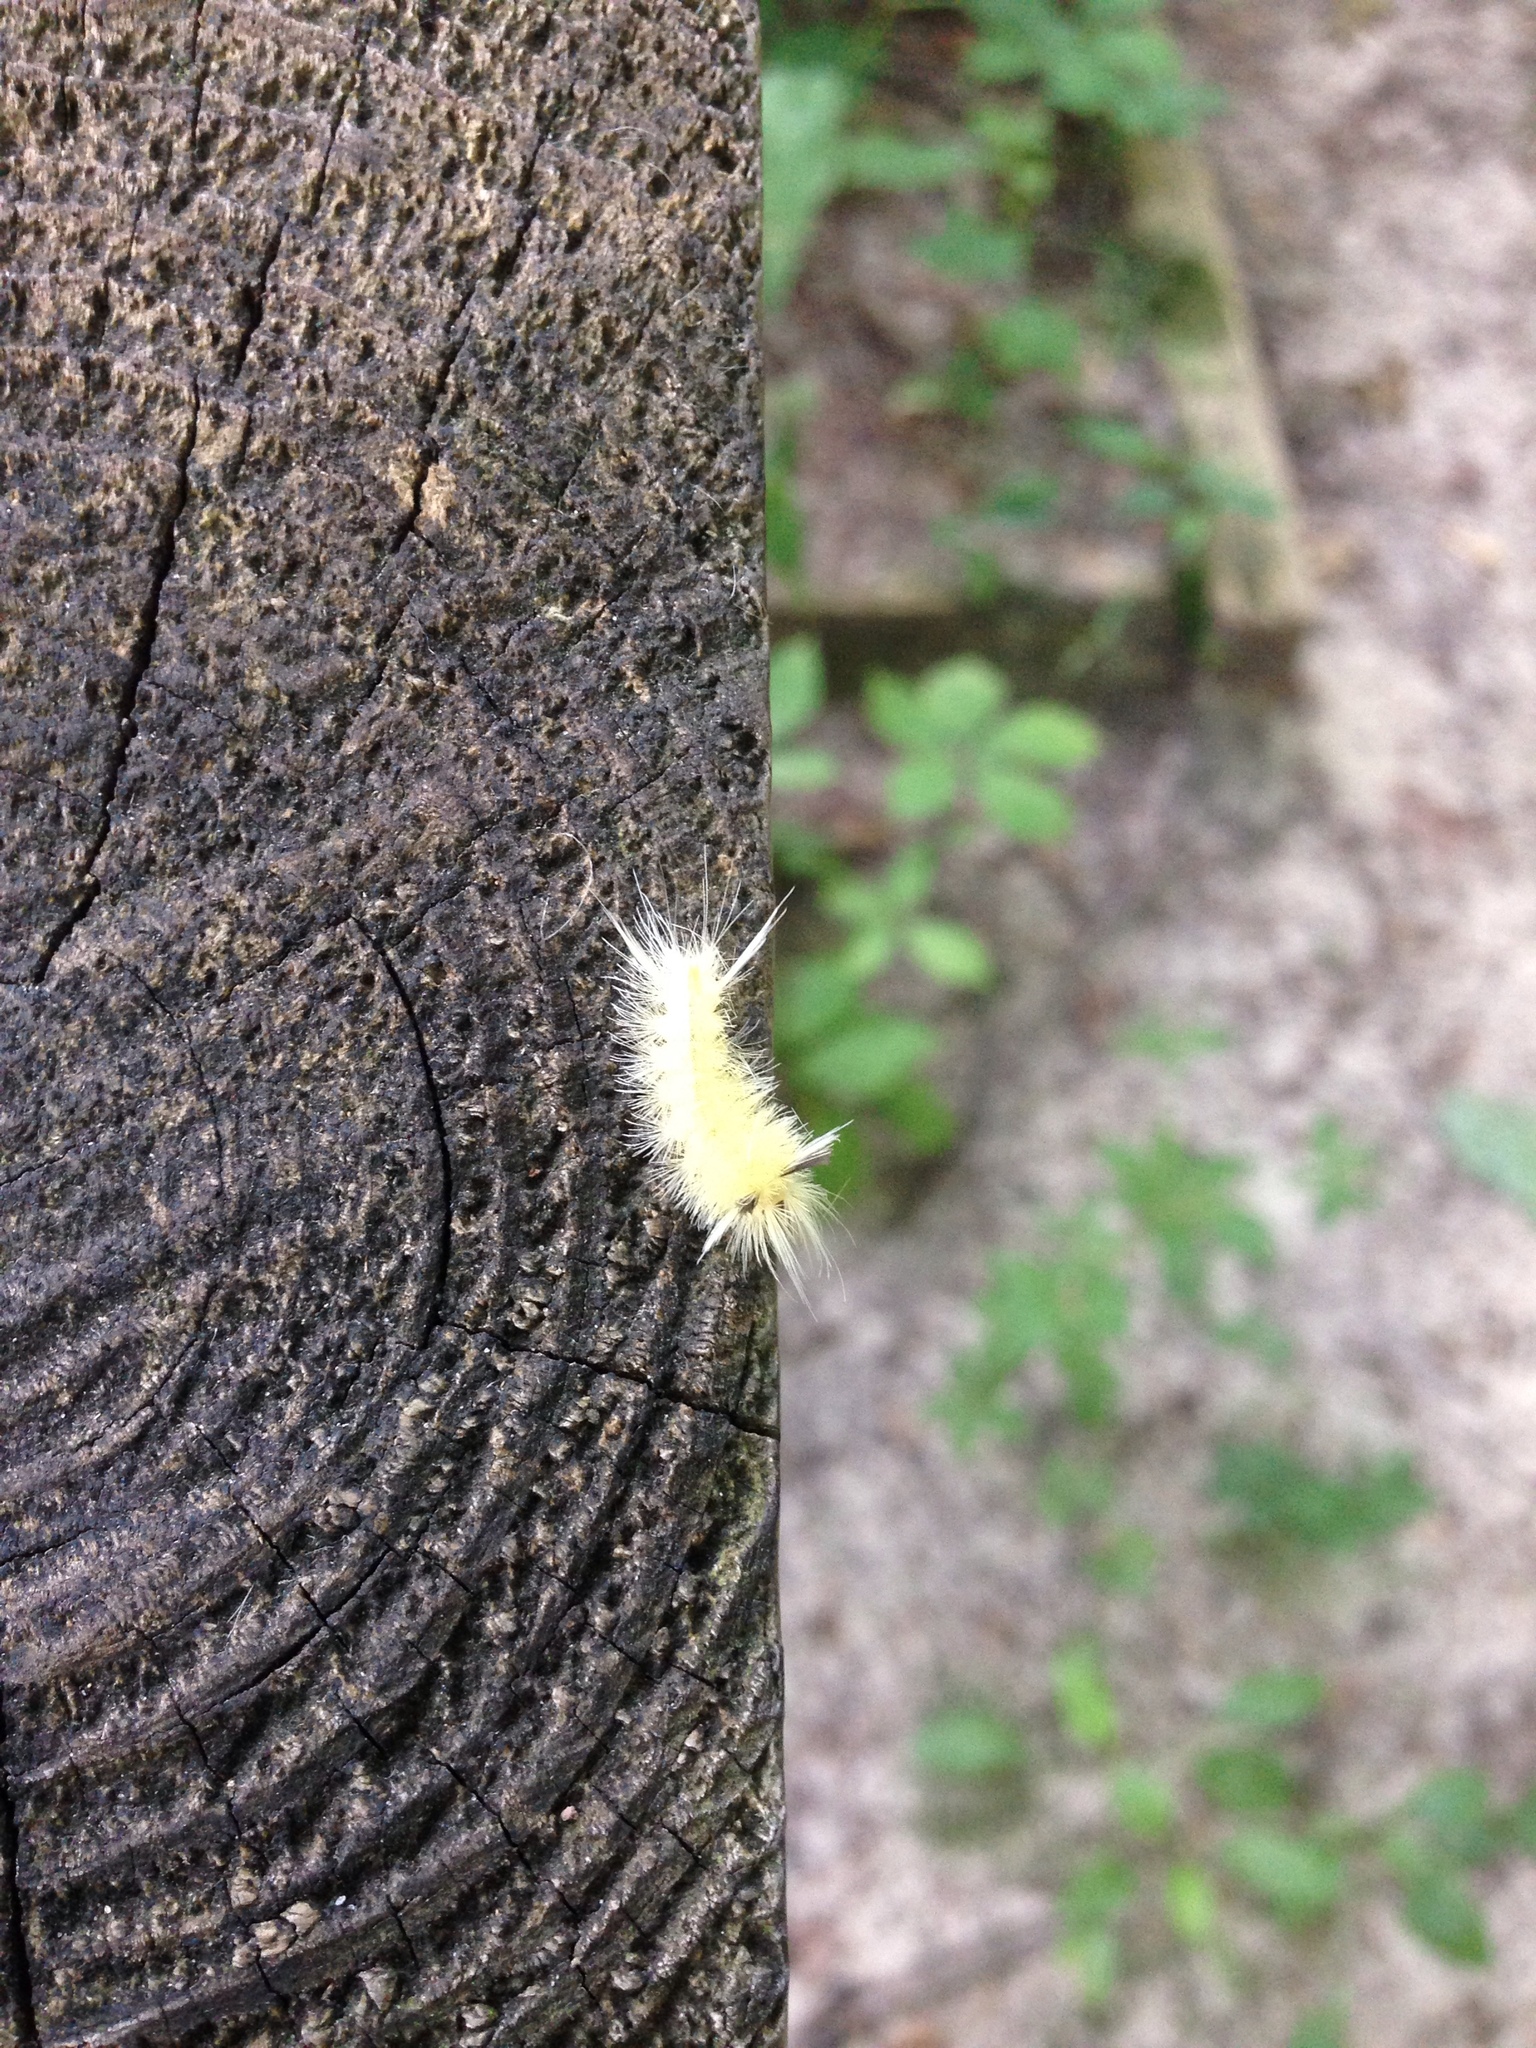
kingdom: Animalia
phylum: Arthropoda
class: Insecta
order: Lepidoptera
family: Erebidae
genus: Halysidota
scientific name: Halysidota tessellaris
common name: Banded tussock moth
